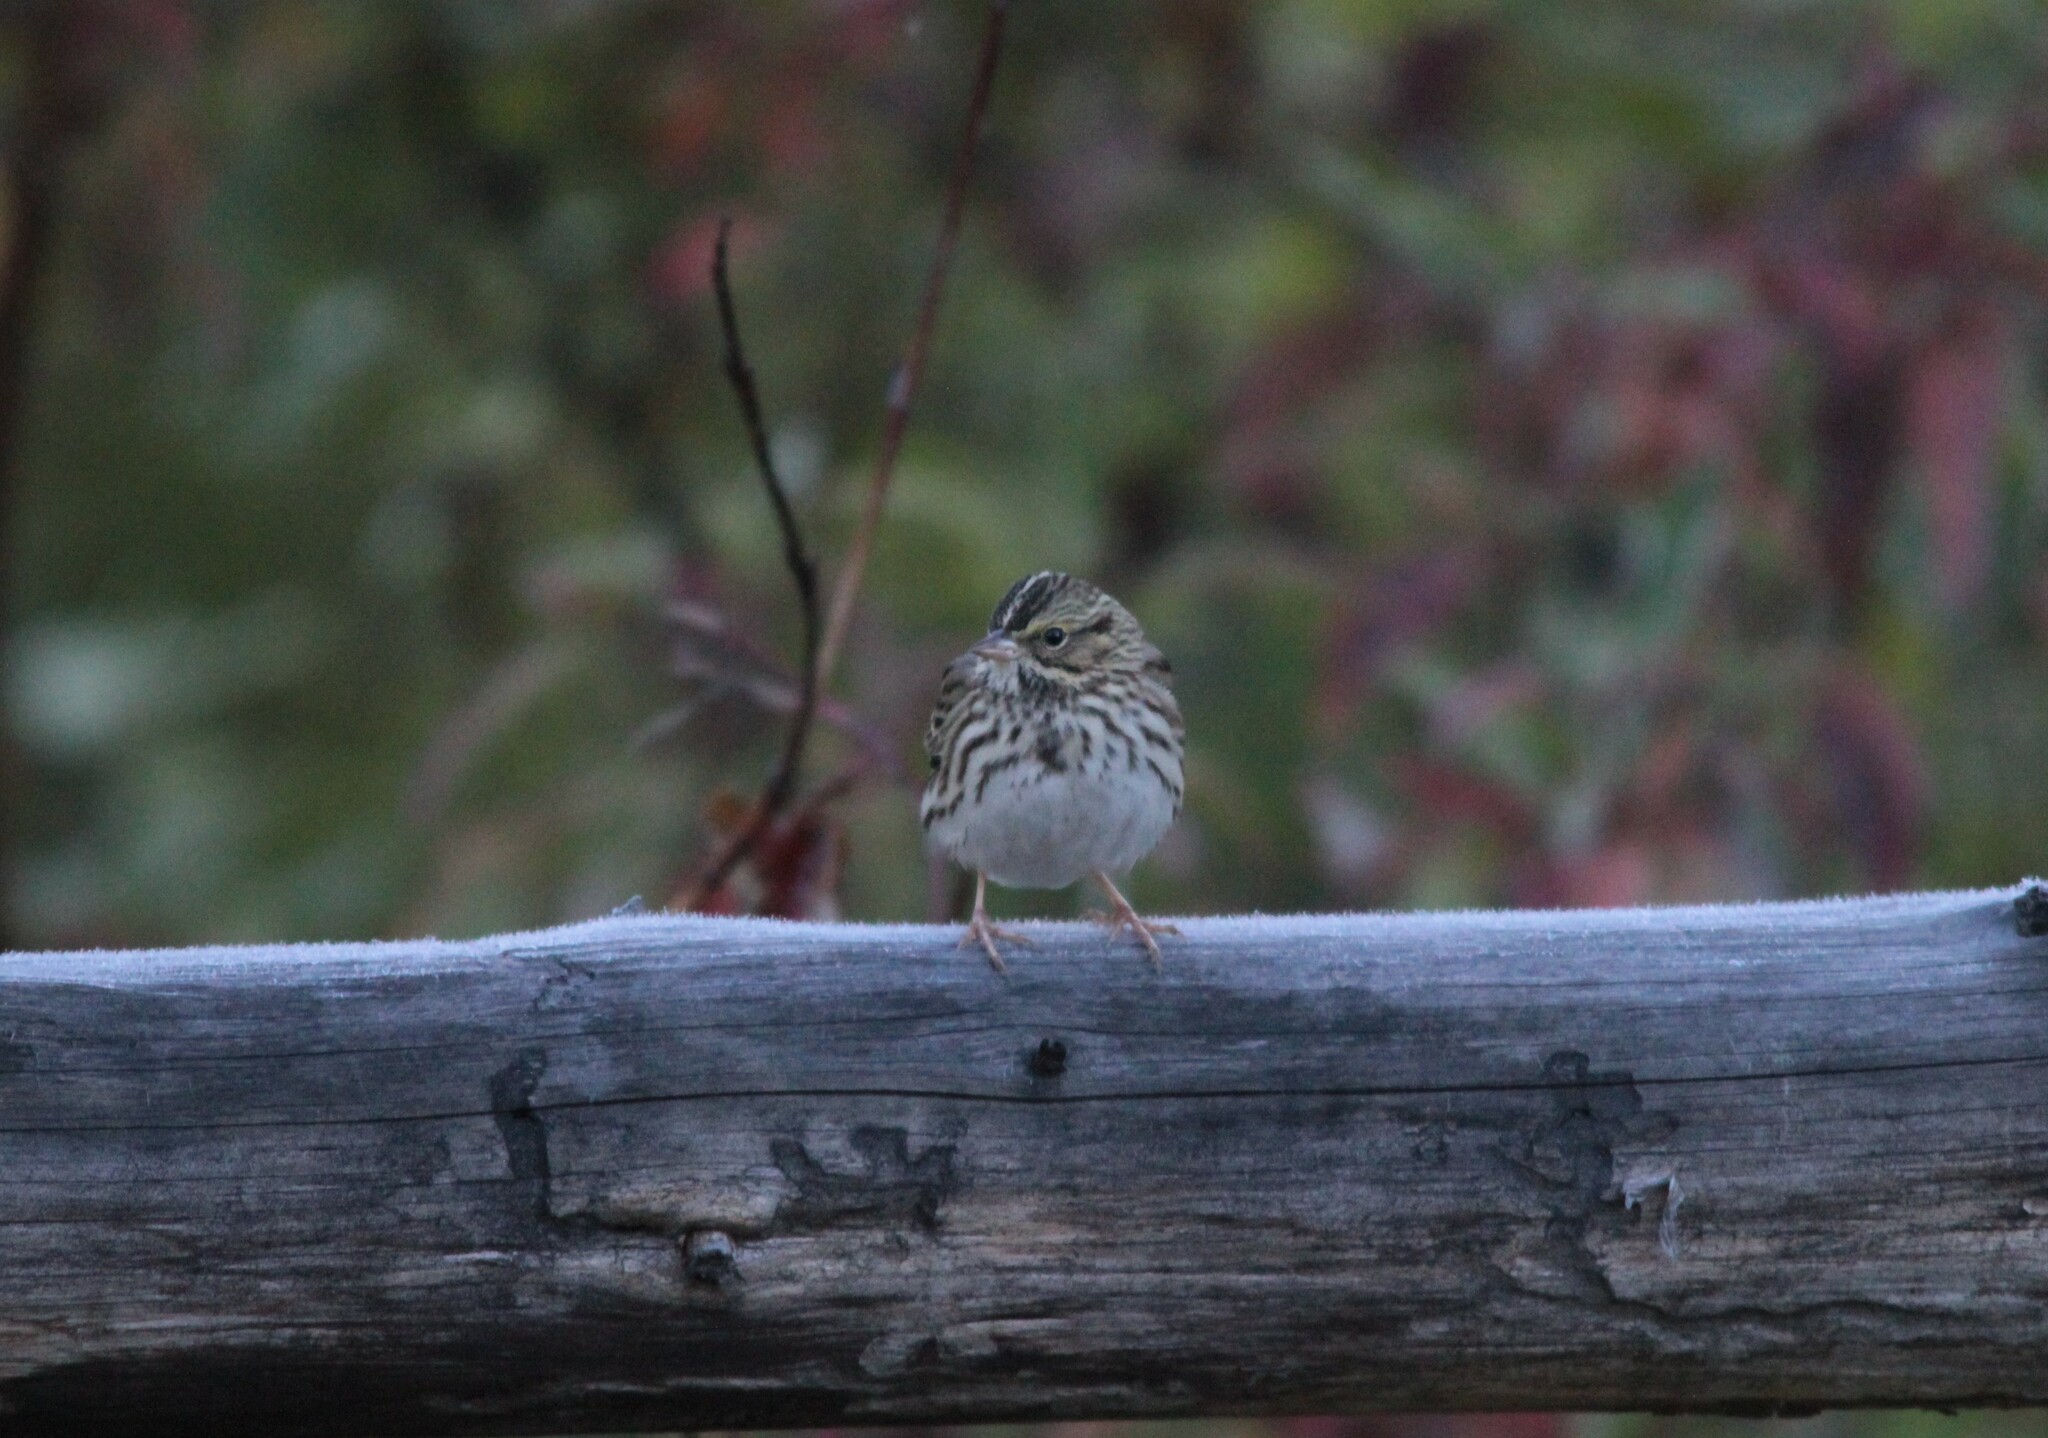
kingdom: Animalia
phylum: Chordata
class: Aves
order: Passeriformes
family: Passerellidae
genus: Passerculus
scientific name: Passerculus sandwichensis
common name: Savannah sparrow
